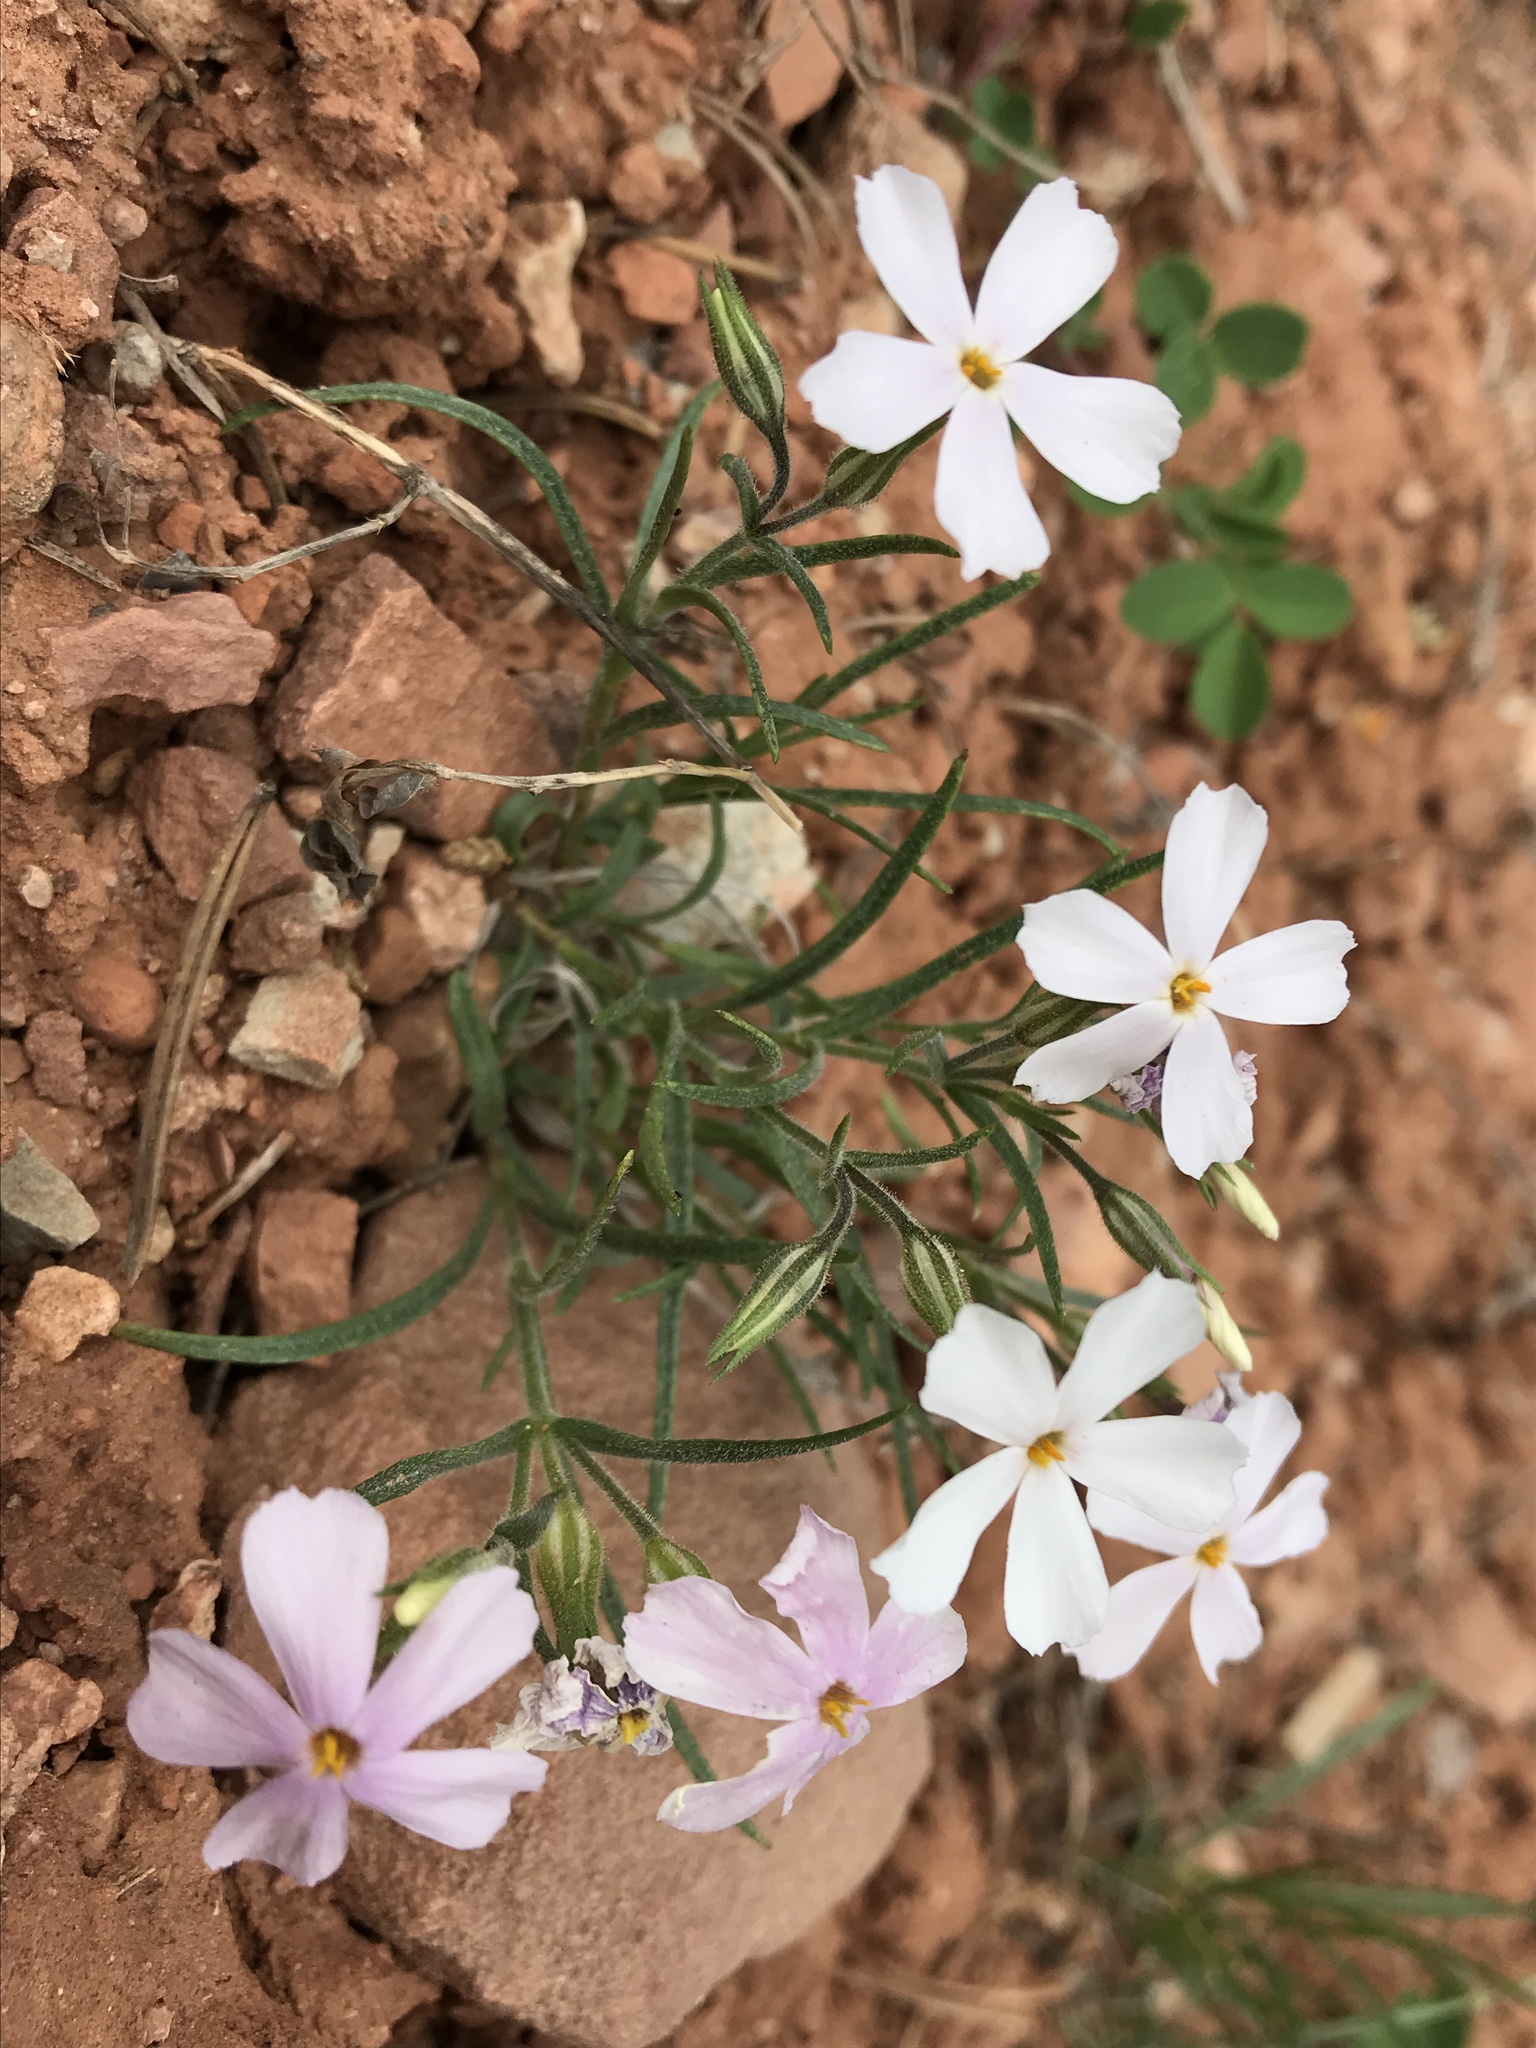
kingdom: Plantae
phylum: Tracheophyta
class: Magnoliopsida
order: Ericales
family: Polemoniaceae
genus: Phlox
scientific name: Phlox longifolia
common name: Longleaf phlox
